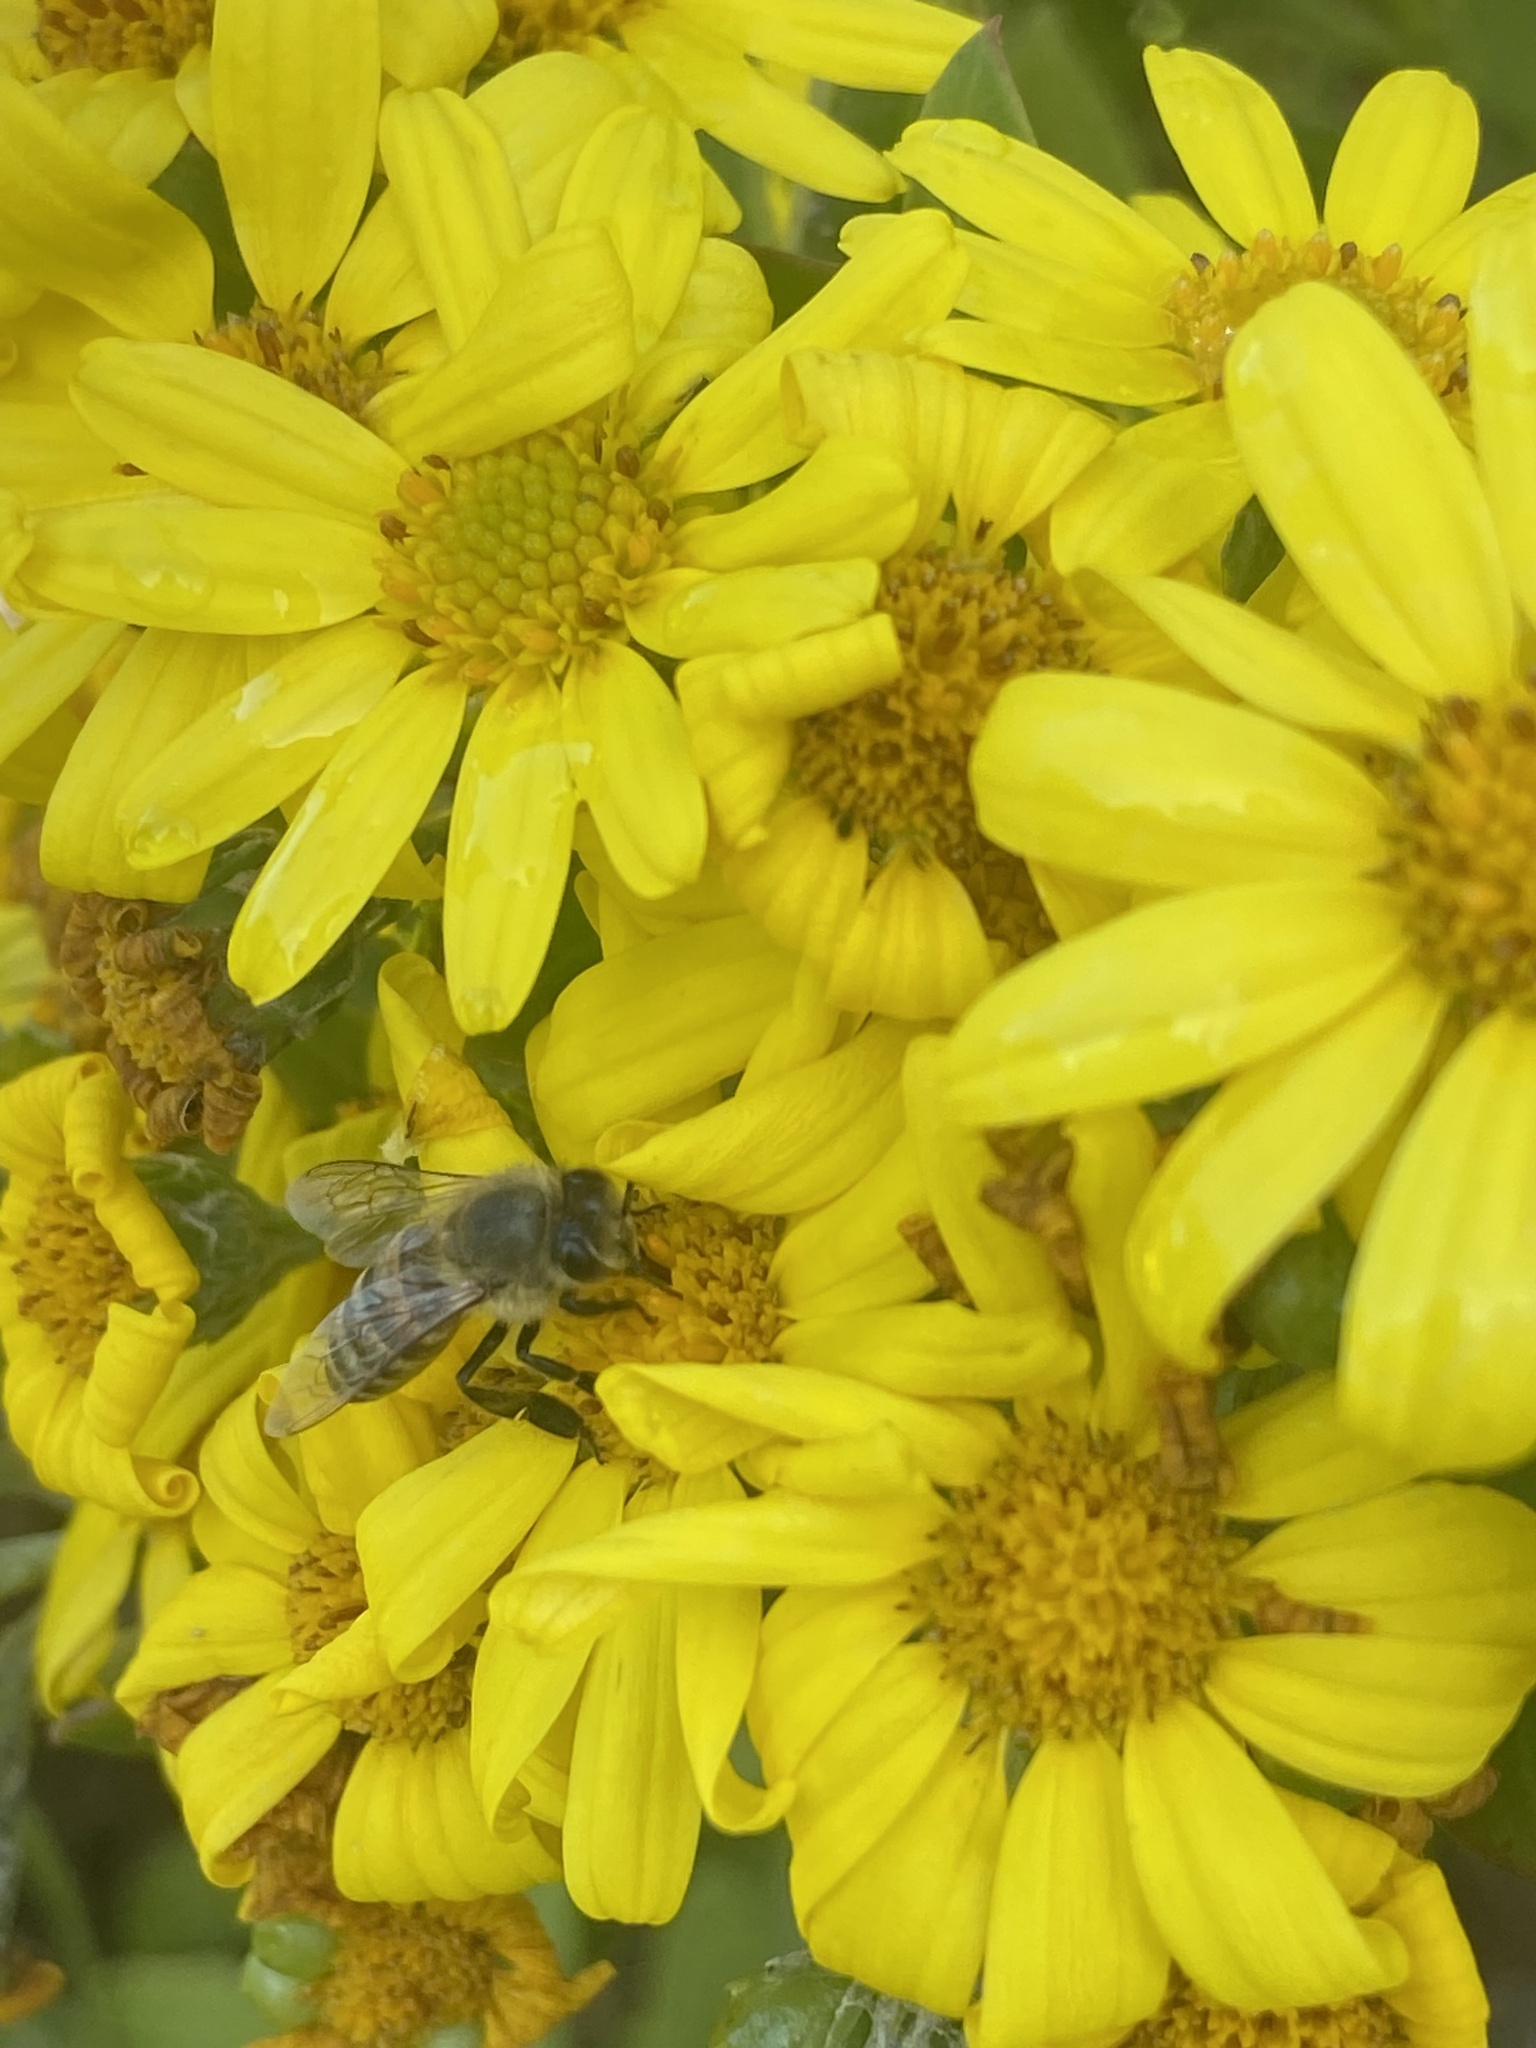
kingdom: Animalia
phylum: Arthropoda
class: Insecta
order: Hymenoptera
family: Apidae
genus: Apis
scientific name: Apis mellifera
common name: Honey bee
